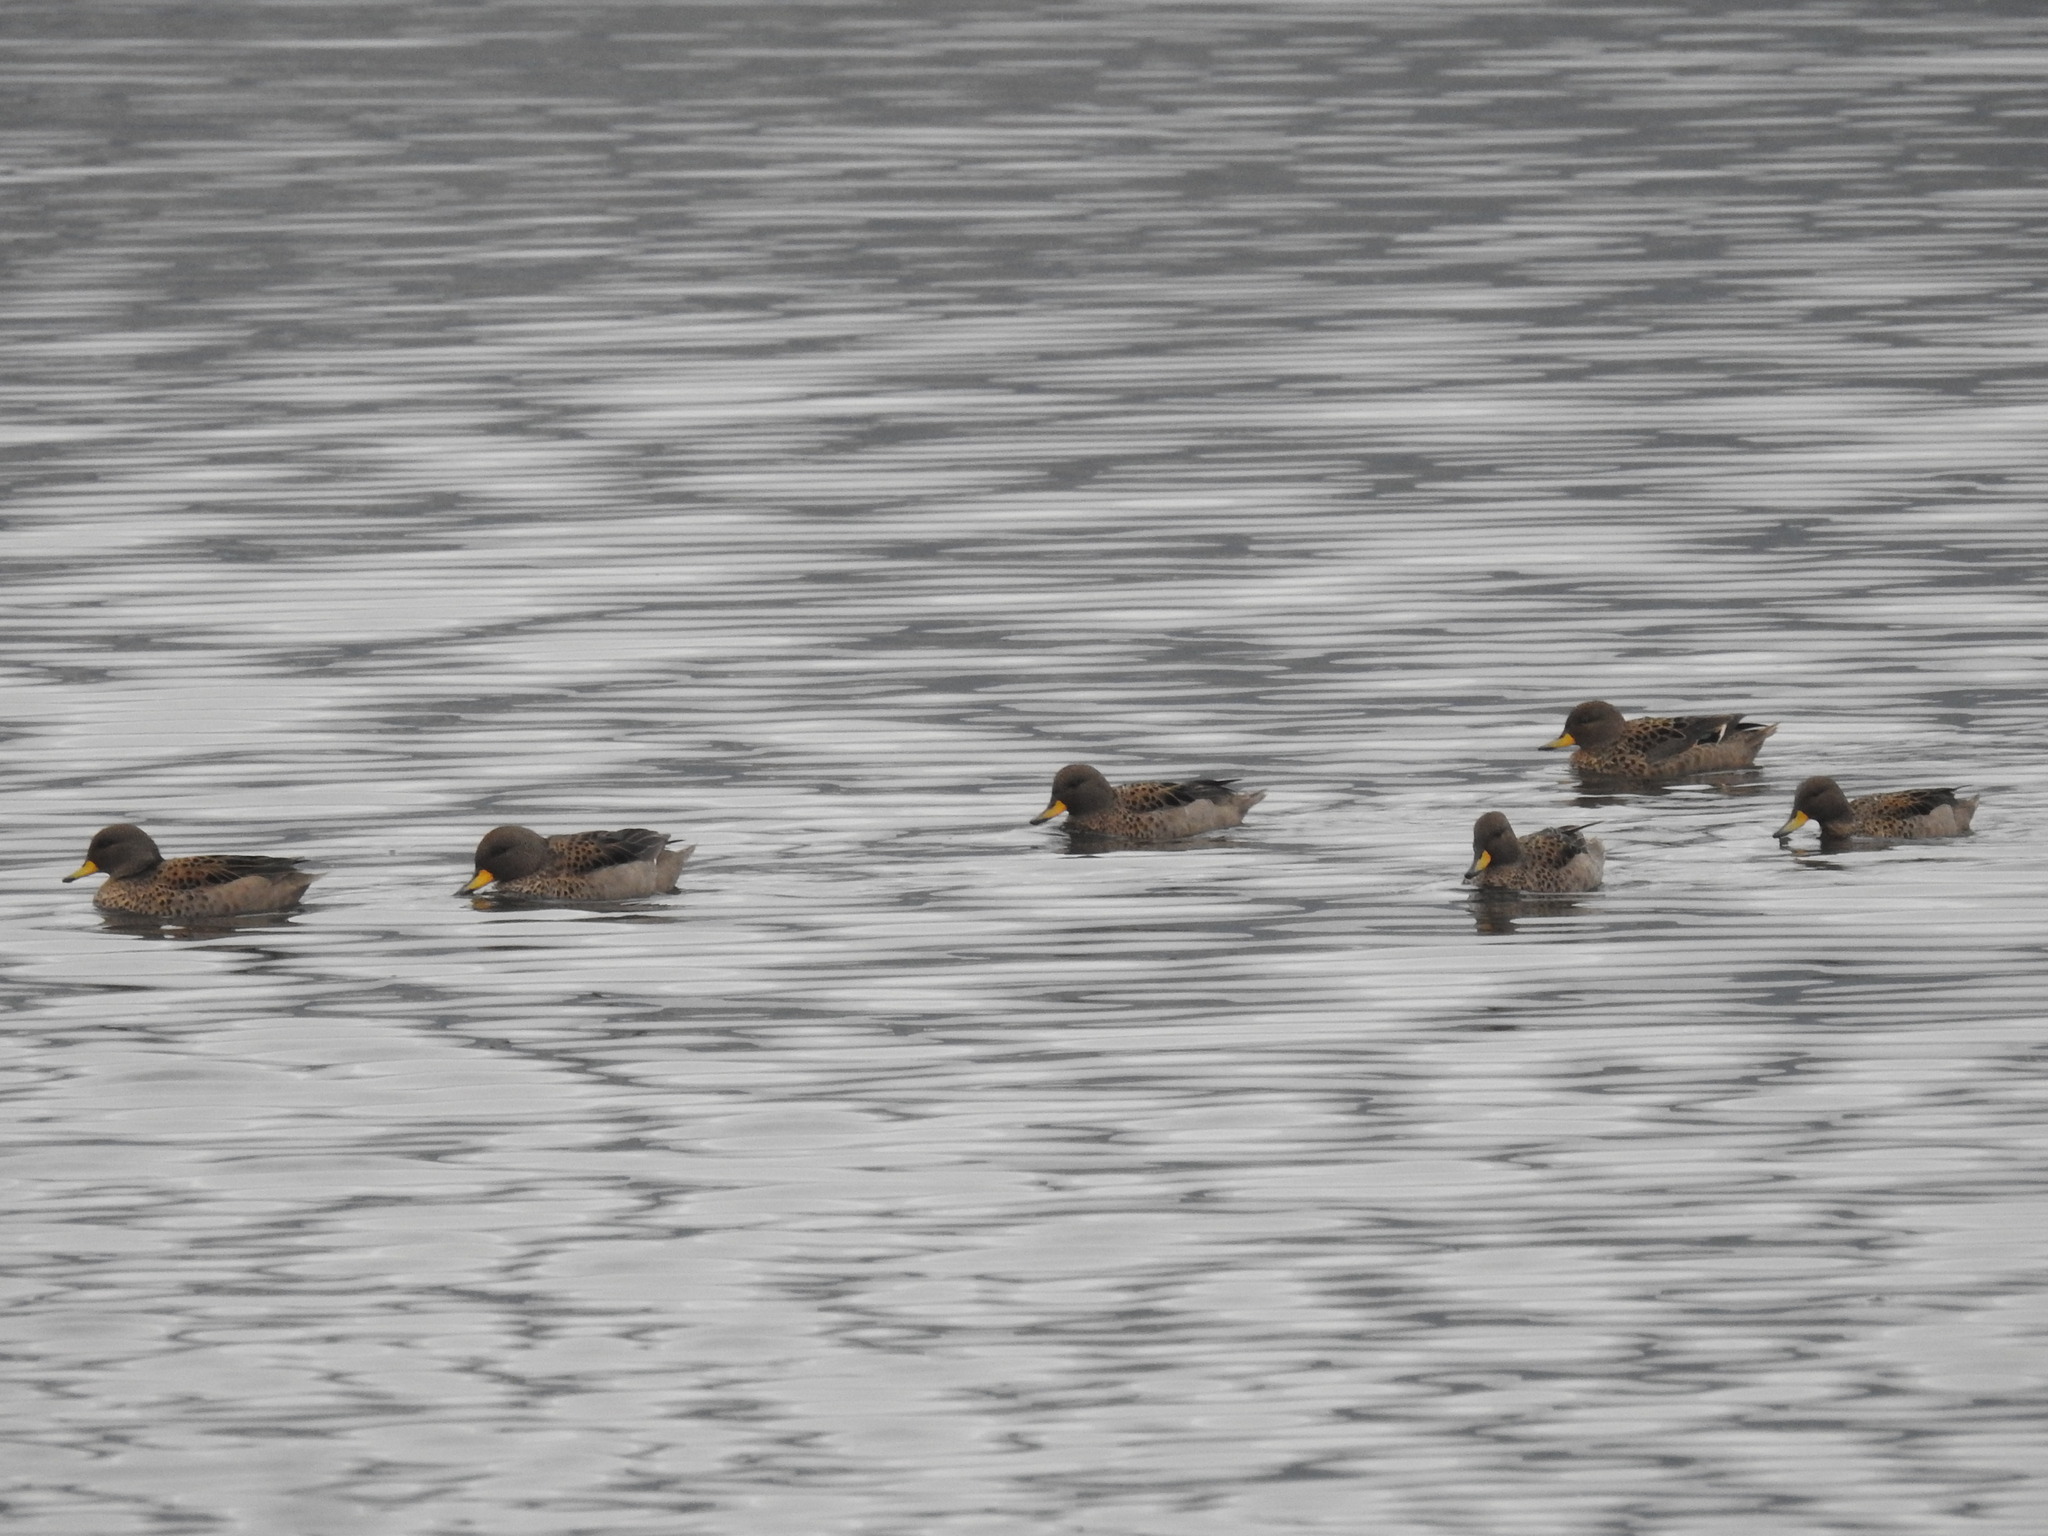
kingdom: Animalia
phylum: Chordata
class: Aves
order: Anseriformes
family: Anatidae
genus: Anas
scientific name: Anas flavirostris
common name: Yellow-billed teal
